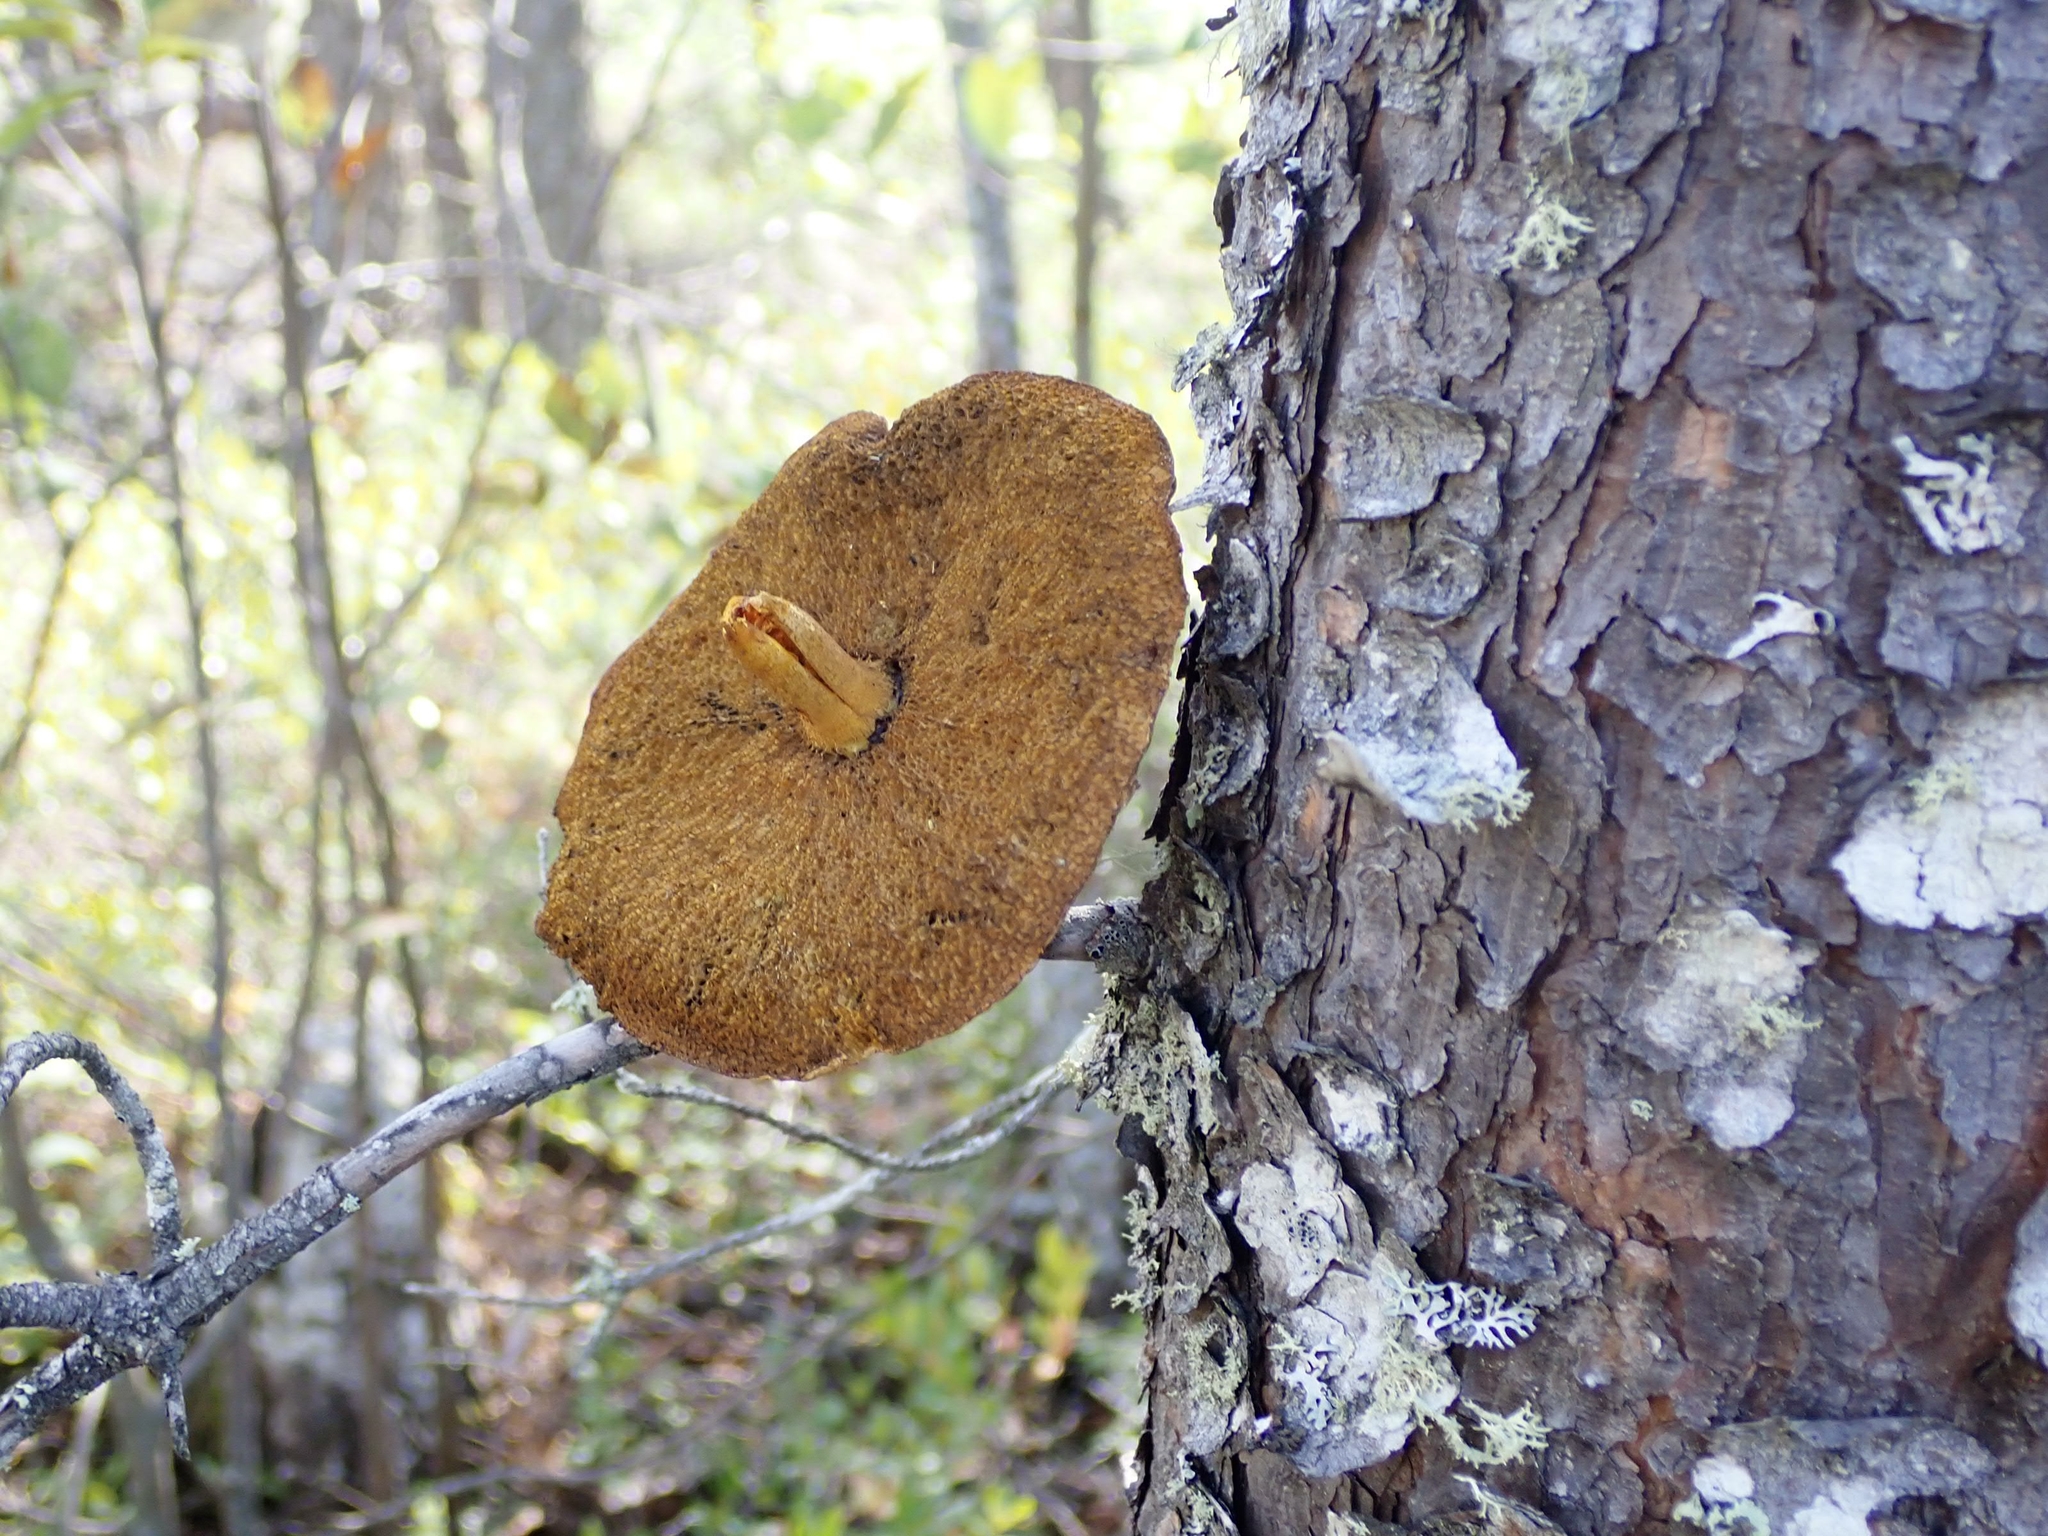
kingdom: Animalia
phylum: Chordata
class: Mammalia
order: Rodentia
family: Sciuridae
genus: Tamiasciurus
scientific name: Tamiasciurus hudsonicus
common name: Red squirrel
